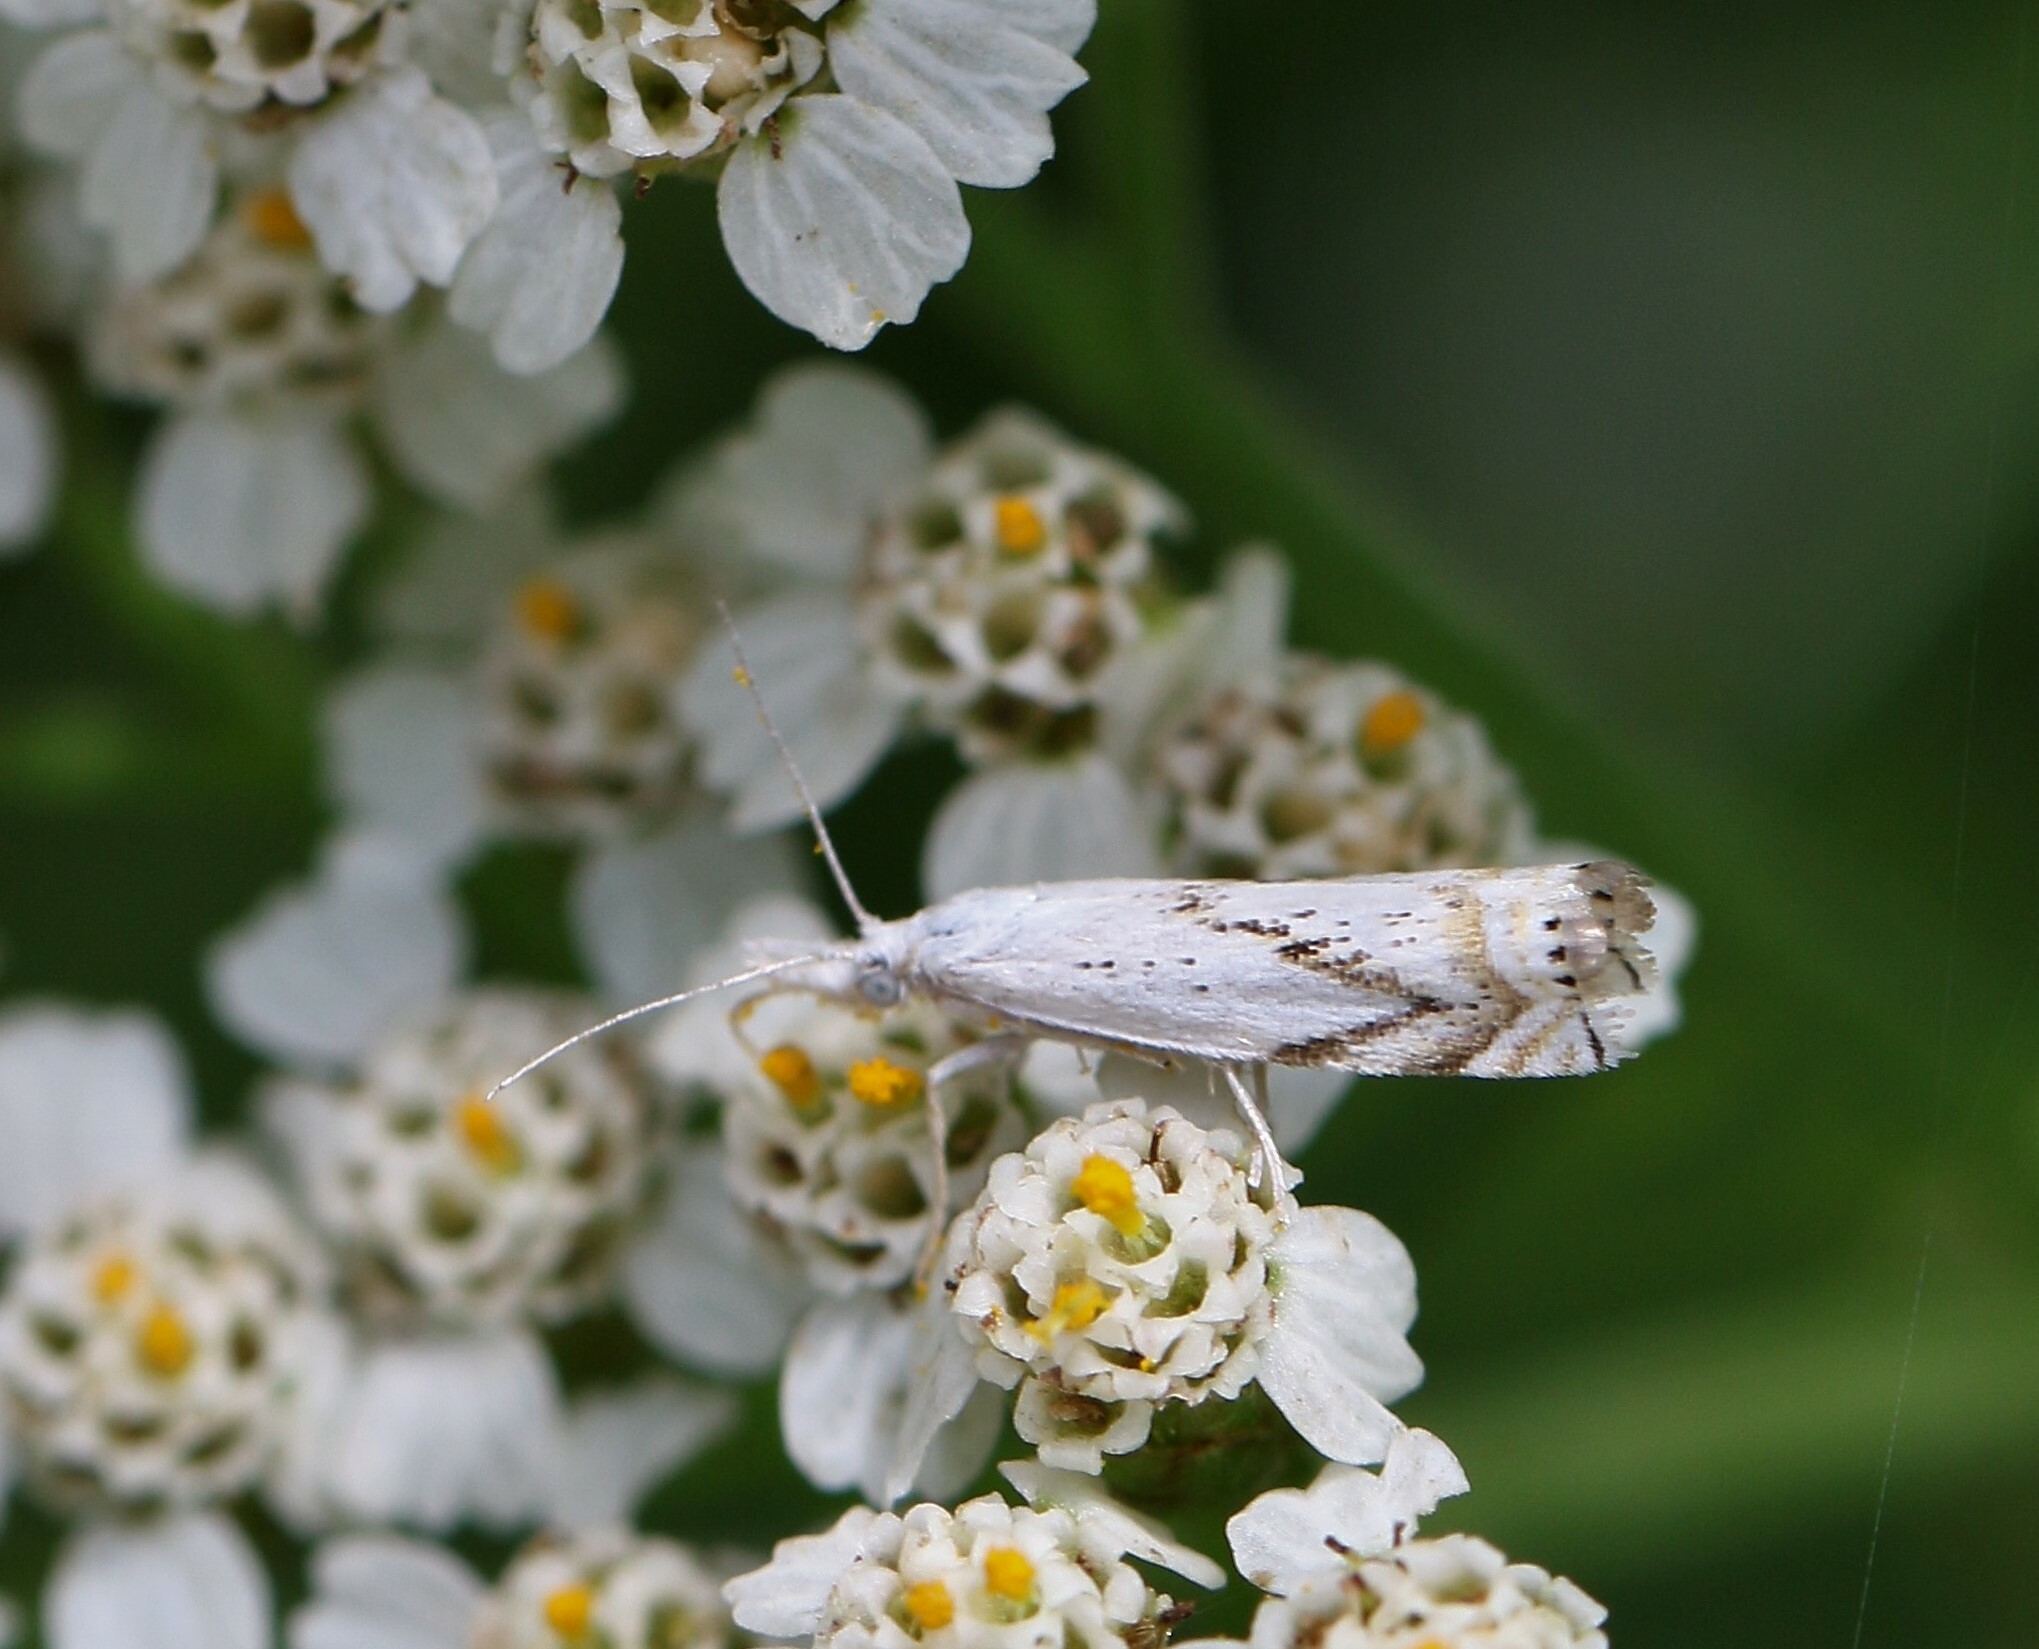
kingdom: Animalia
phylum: Arthropoda
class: Insecta
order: Lepidoptera
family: Crambidae
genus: Crambus
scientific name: Crambus albellus
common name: Small white grass-veneer
